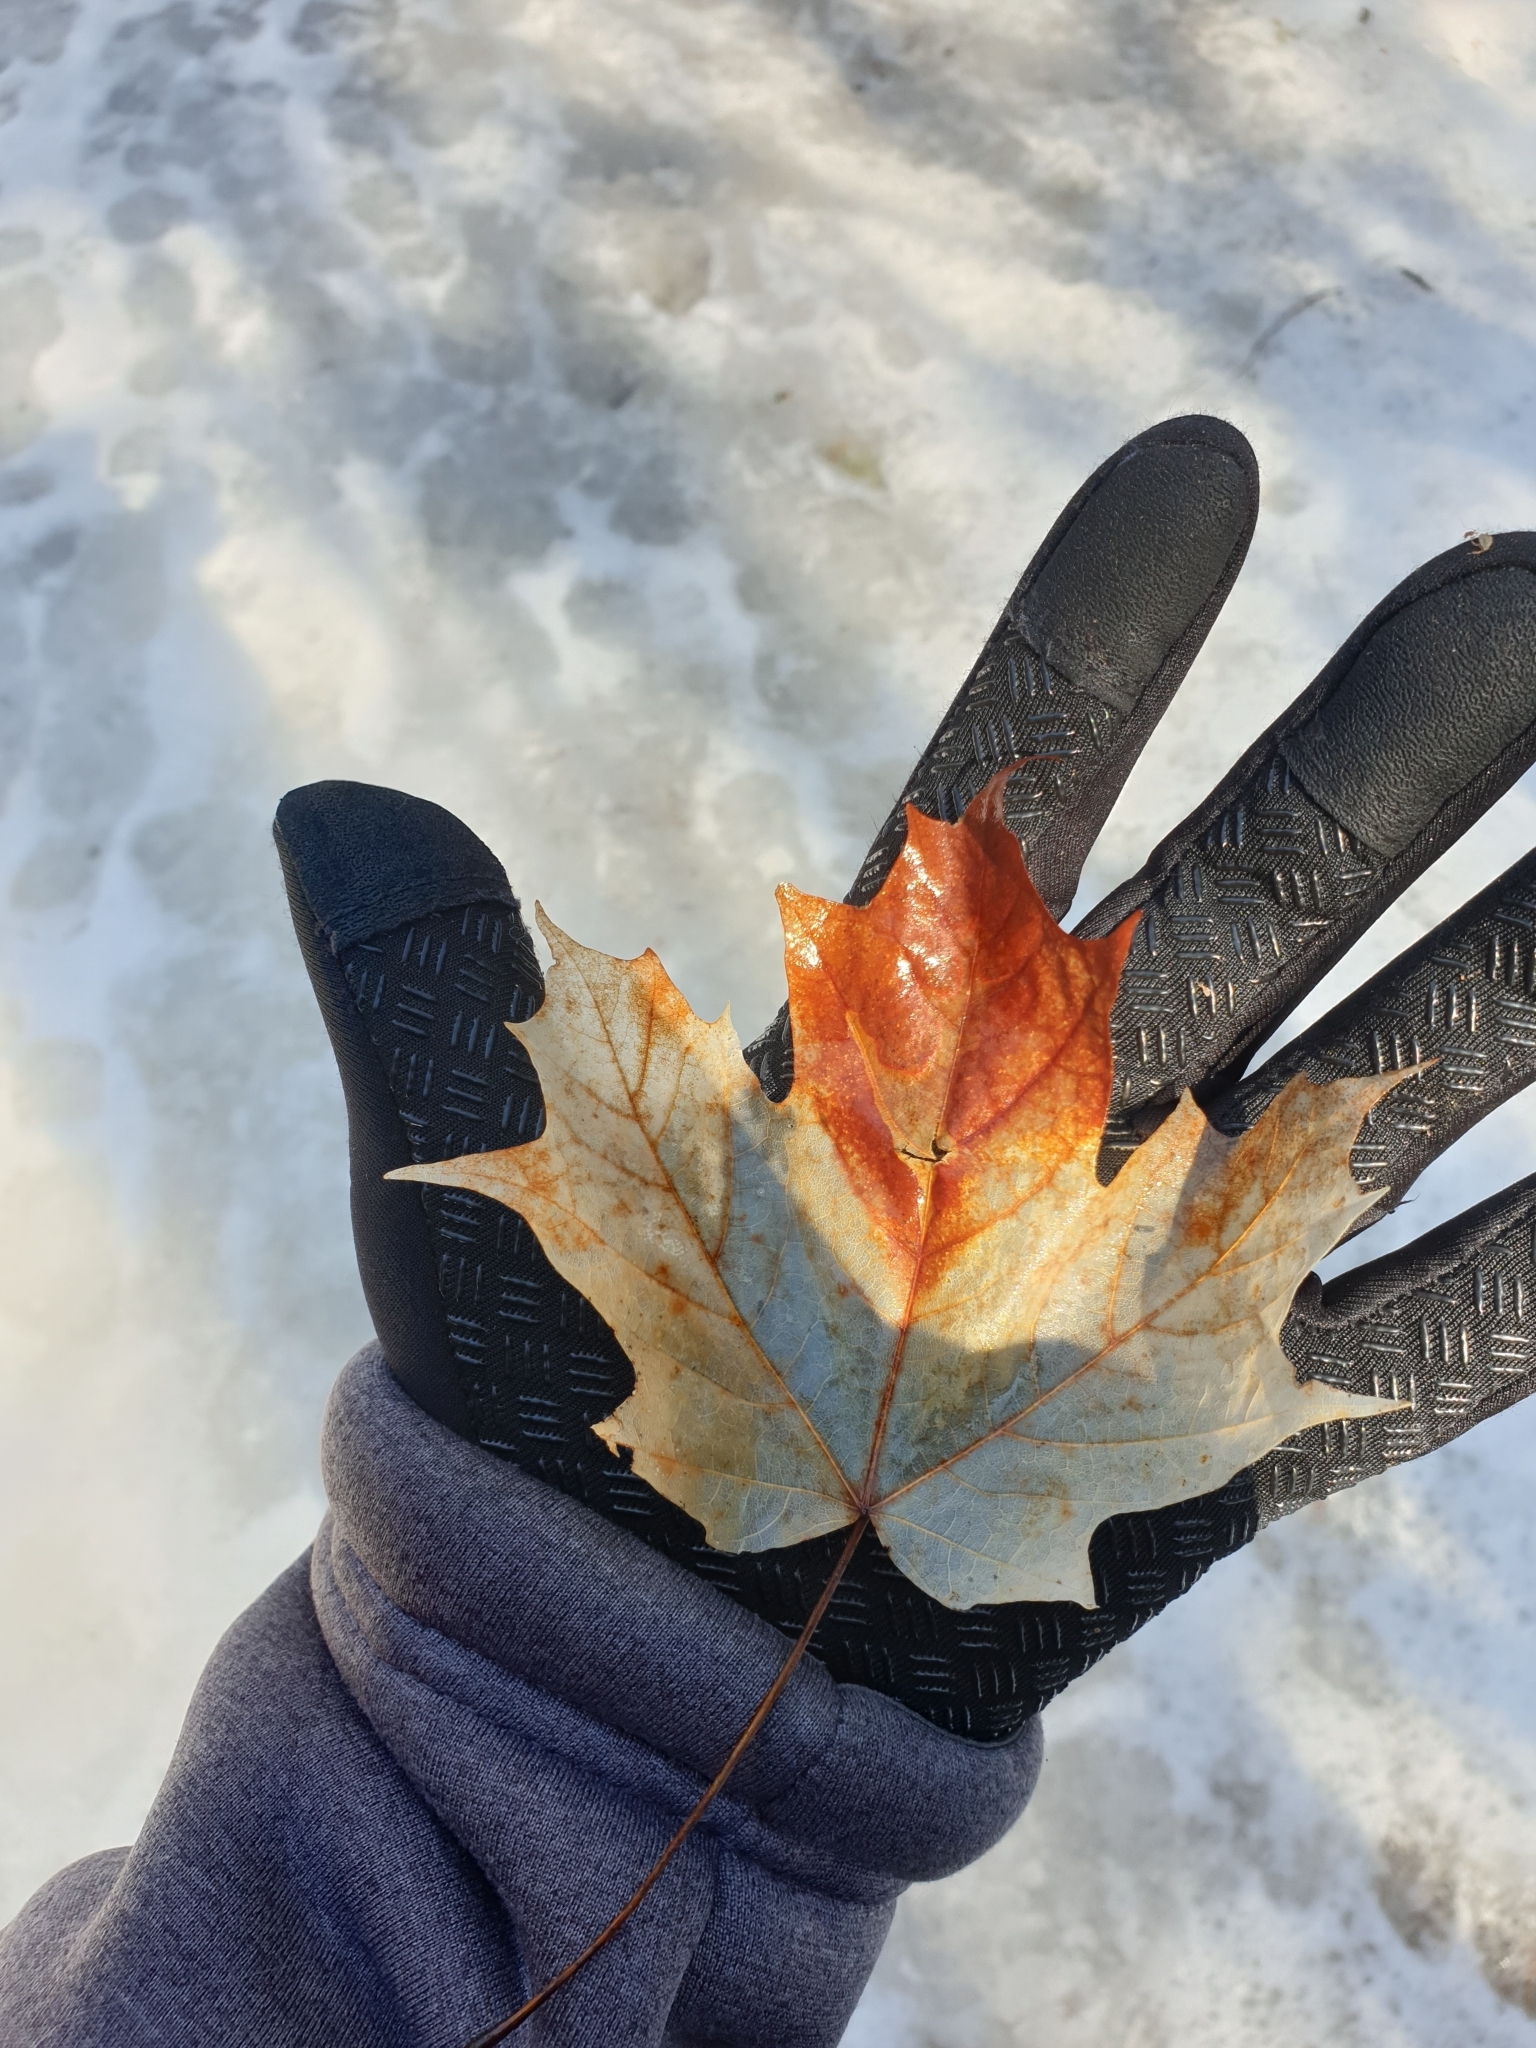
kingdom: Plantae
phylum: Tracheophyta
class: Magnoliopsida
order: Sapindales
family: Sapindaceae
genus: Acer
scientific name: Acer saccharum
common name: Sugar maple
